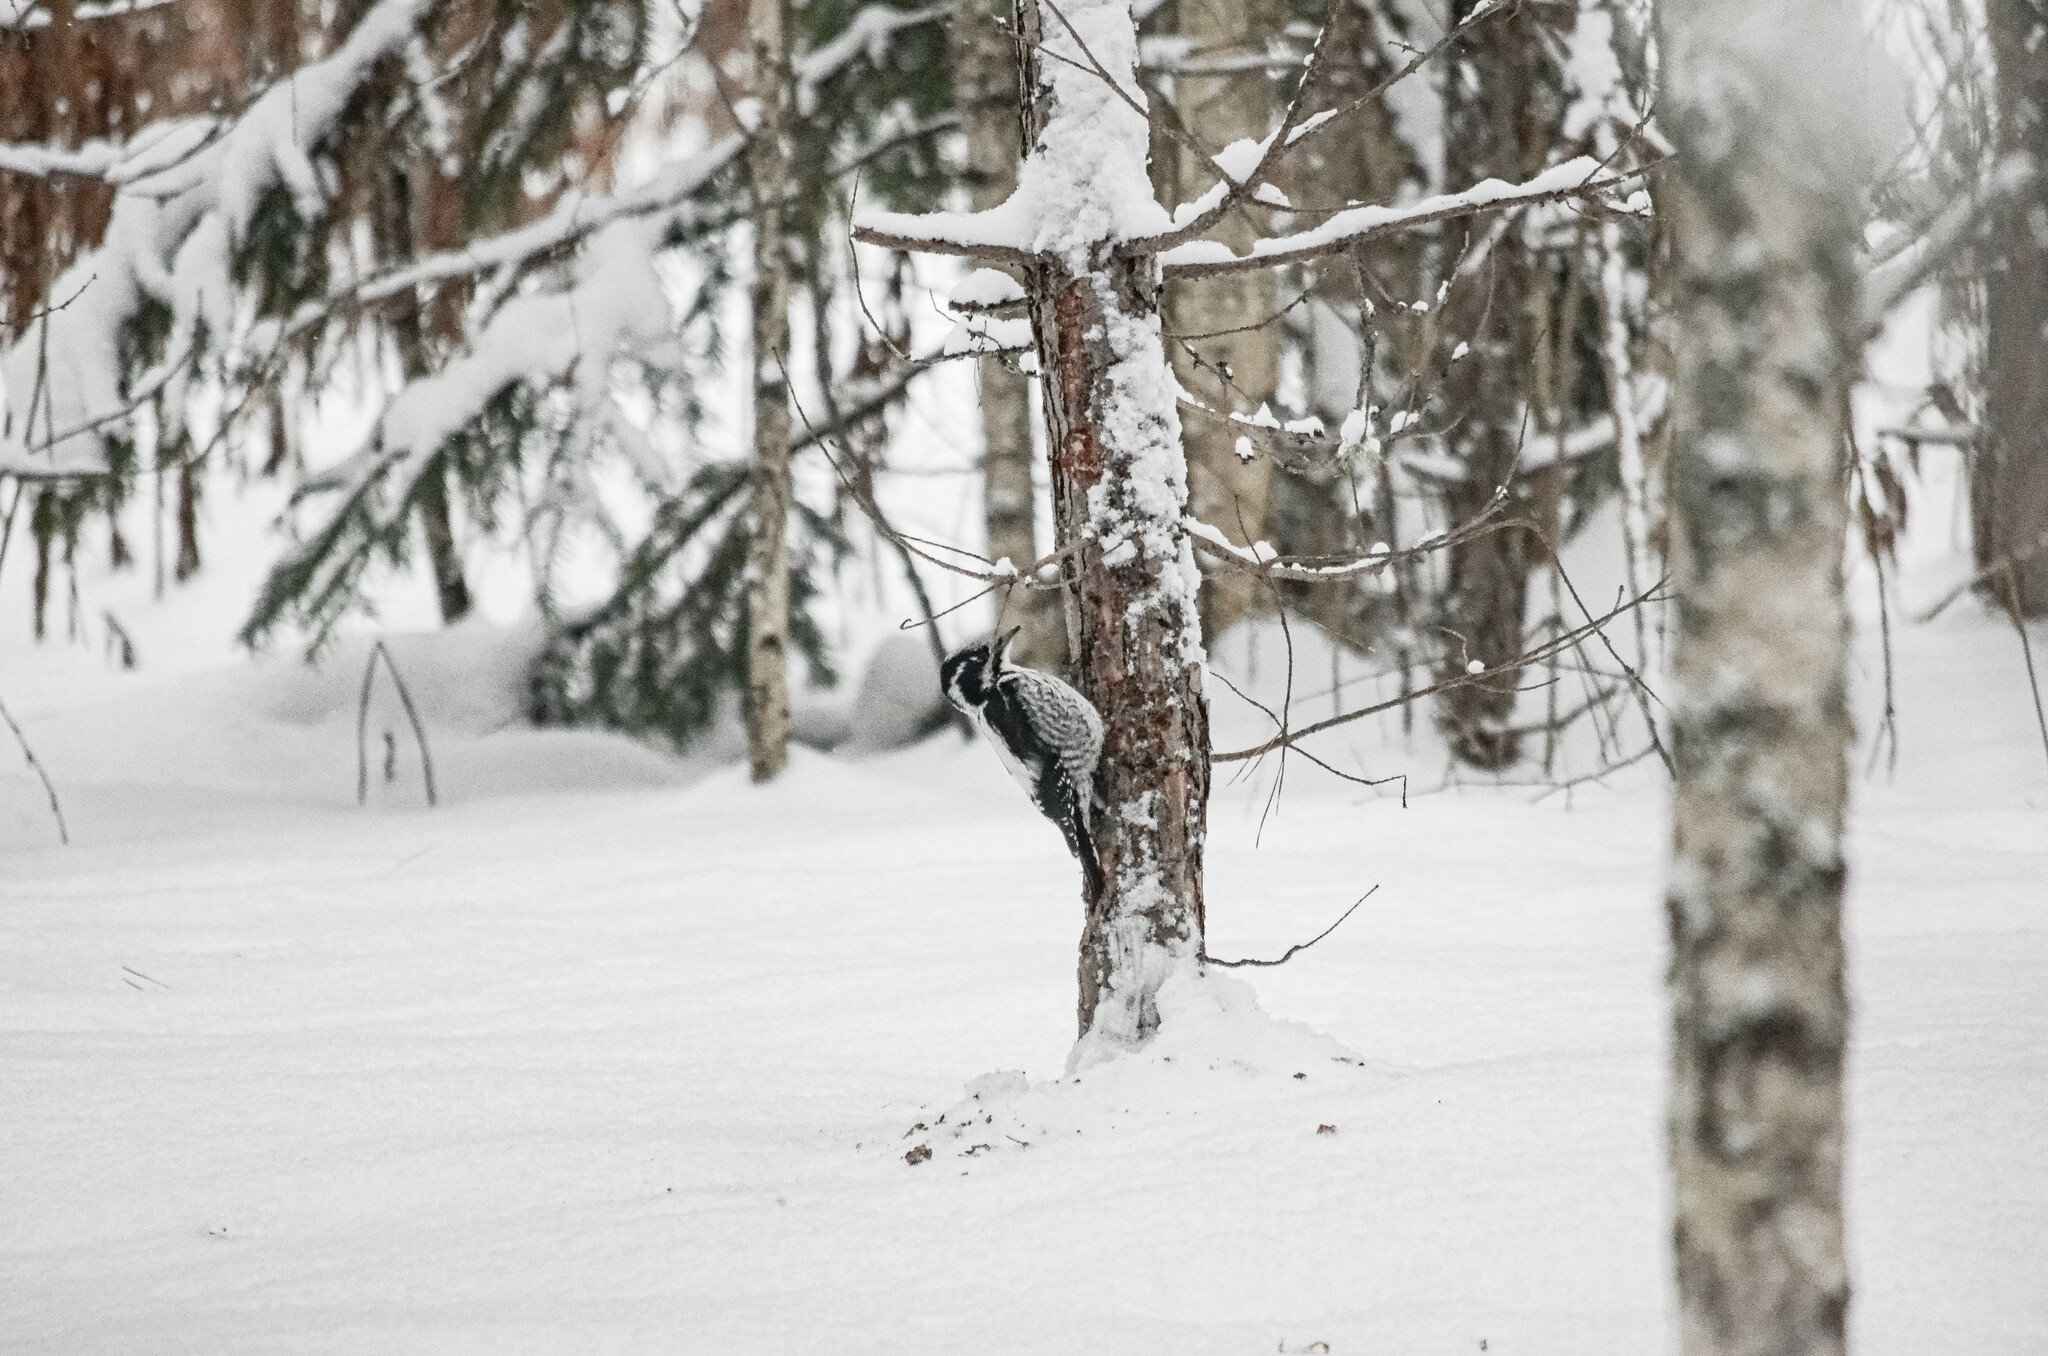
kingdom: Animalia
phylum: Chordata
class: Aves
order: Piciformes
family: Picidae
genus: Picoides
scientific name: Picoides tridactylus
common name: Eurasian three-toed woodpecker
